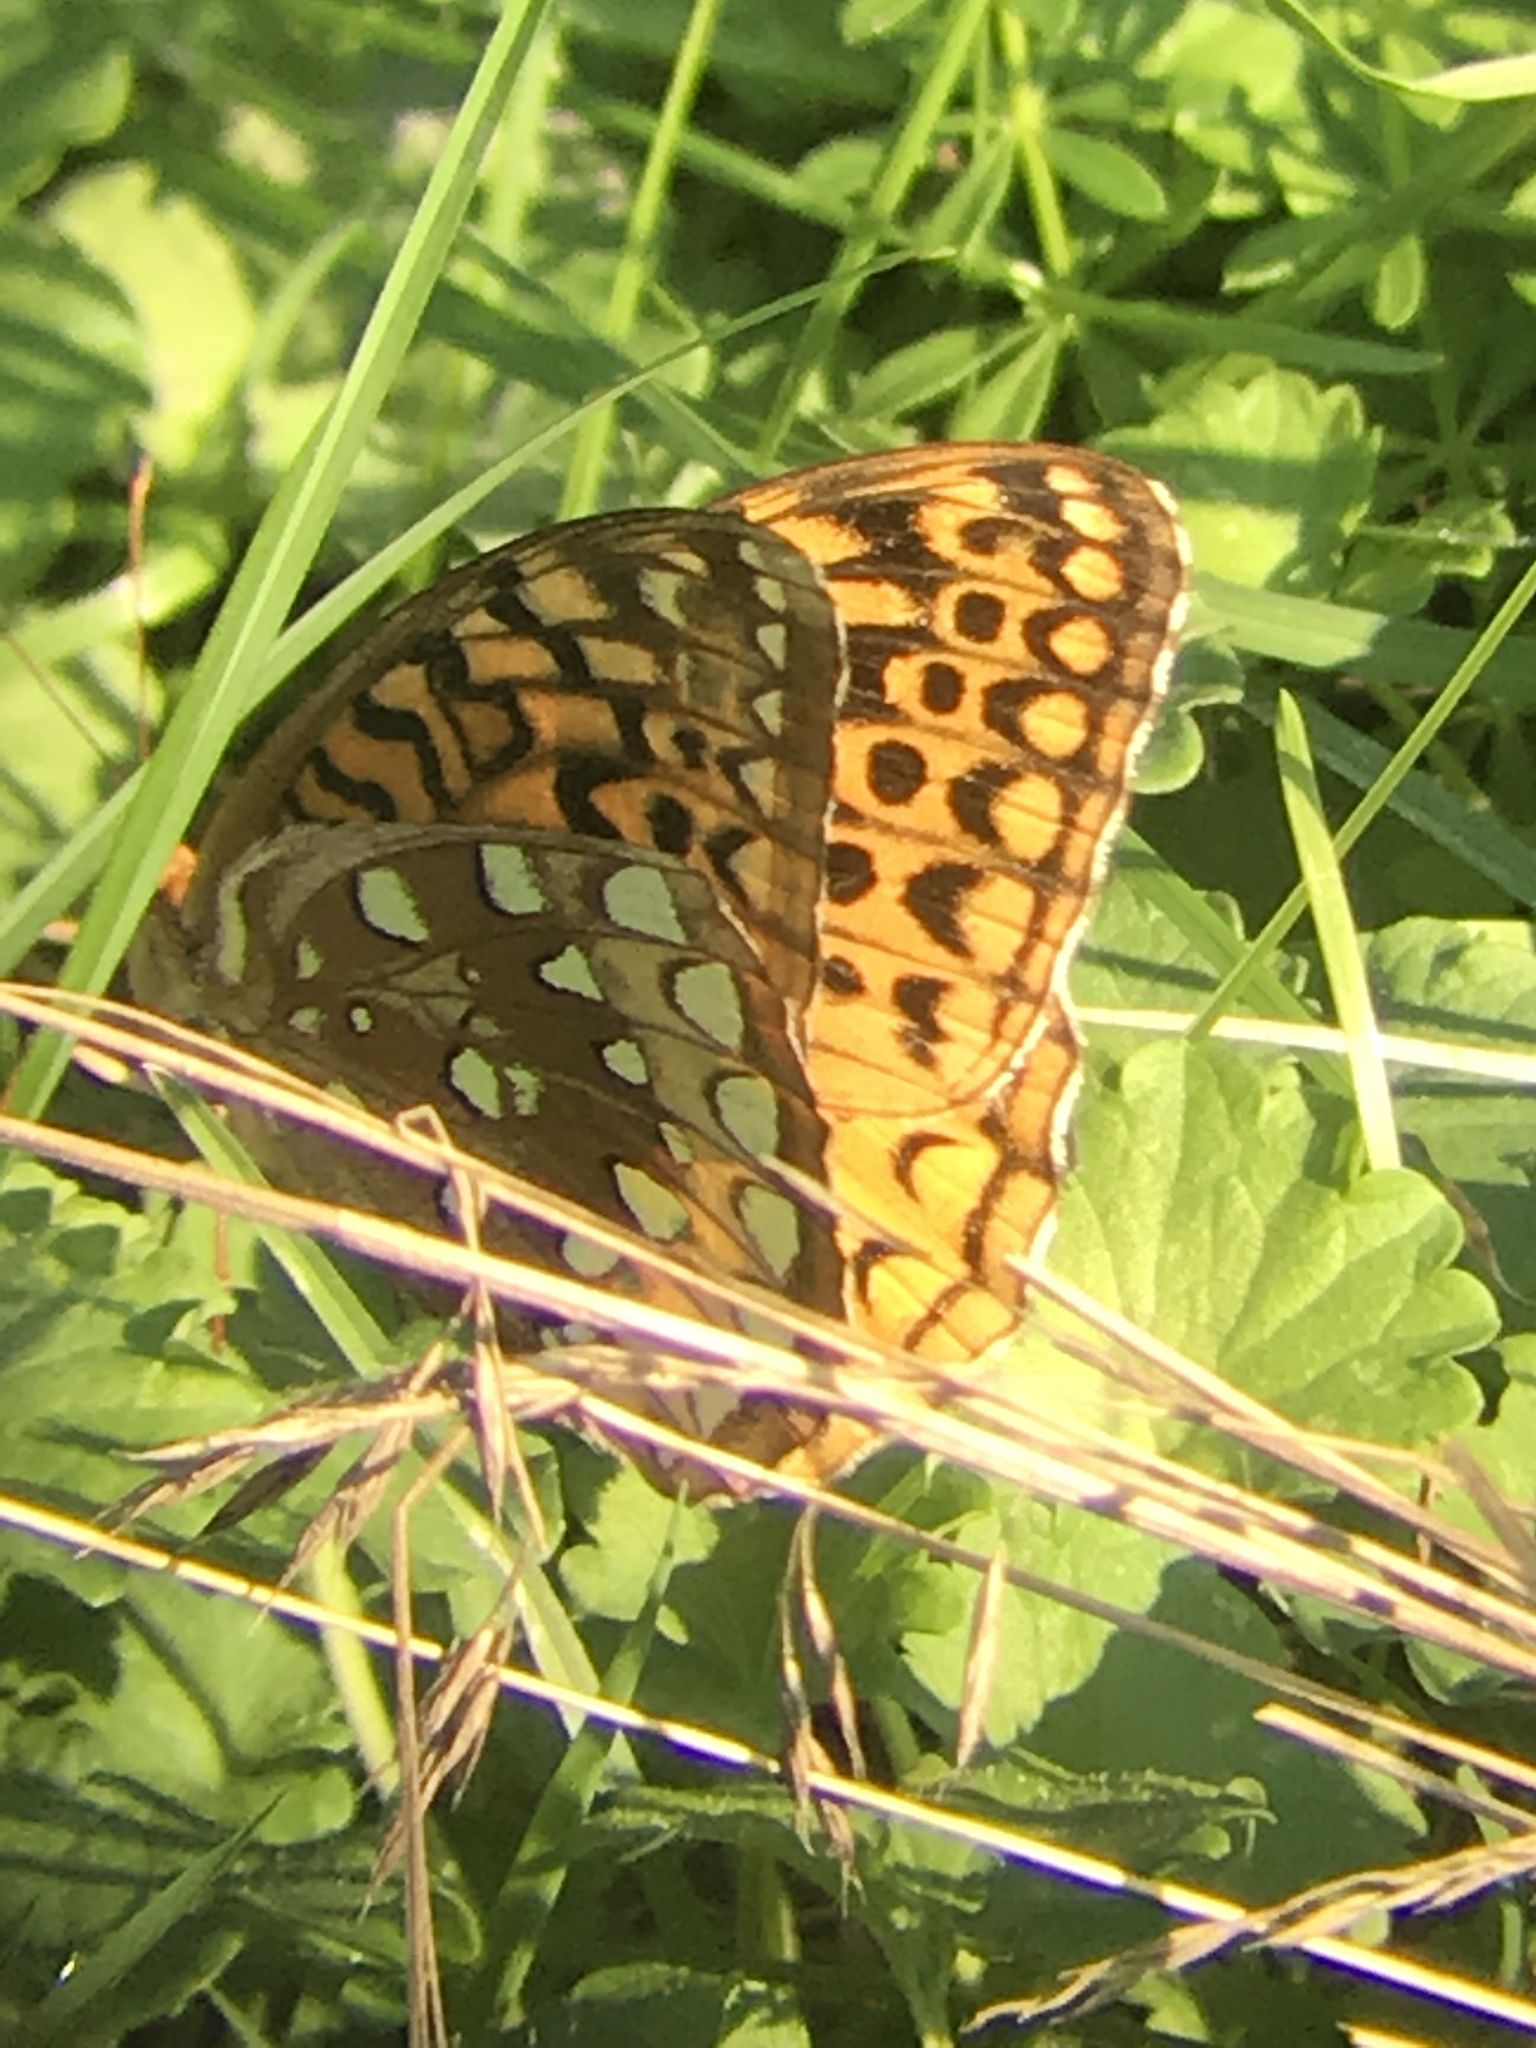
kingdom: Animalia
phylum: Arthropoda
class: Insecta
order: Lepidoptera
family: Nymphalidae
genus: Speyeria
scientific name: Speyeria cybele
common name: Great spangled fritillary
